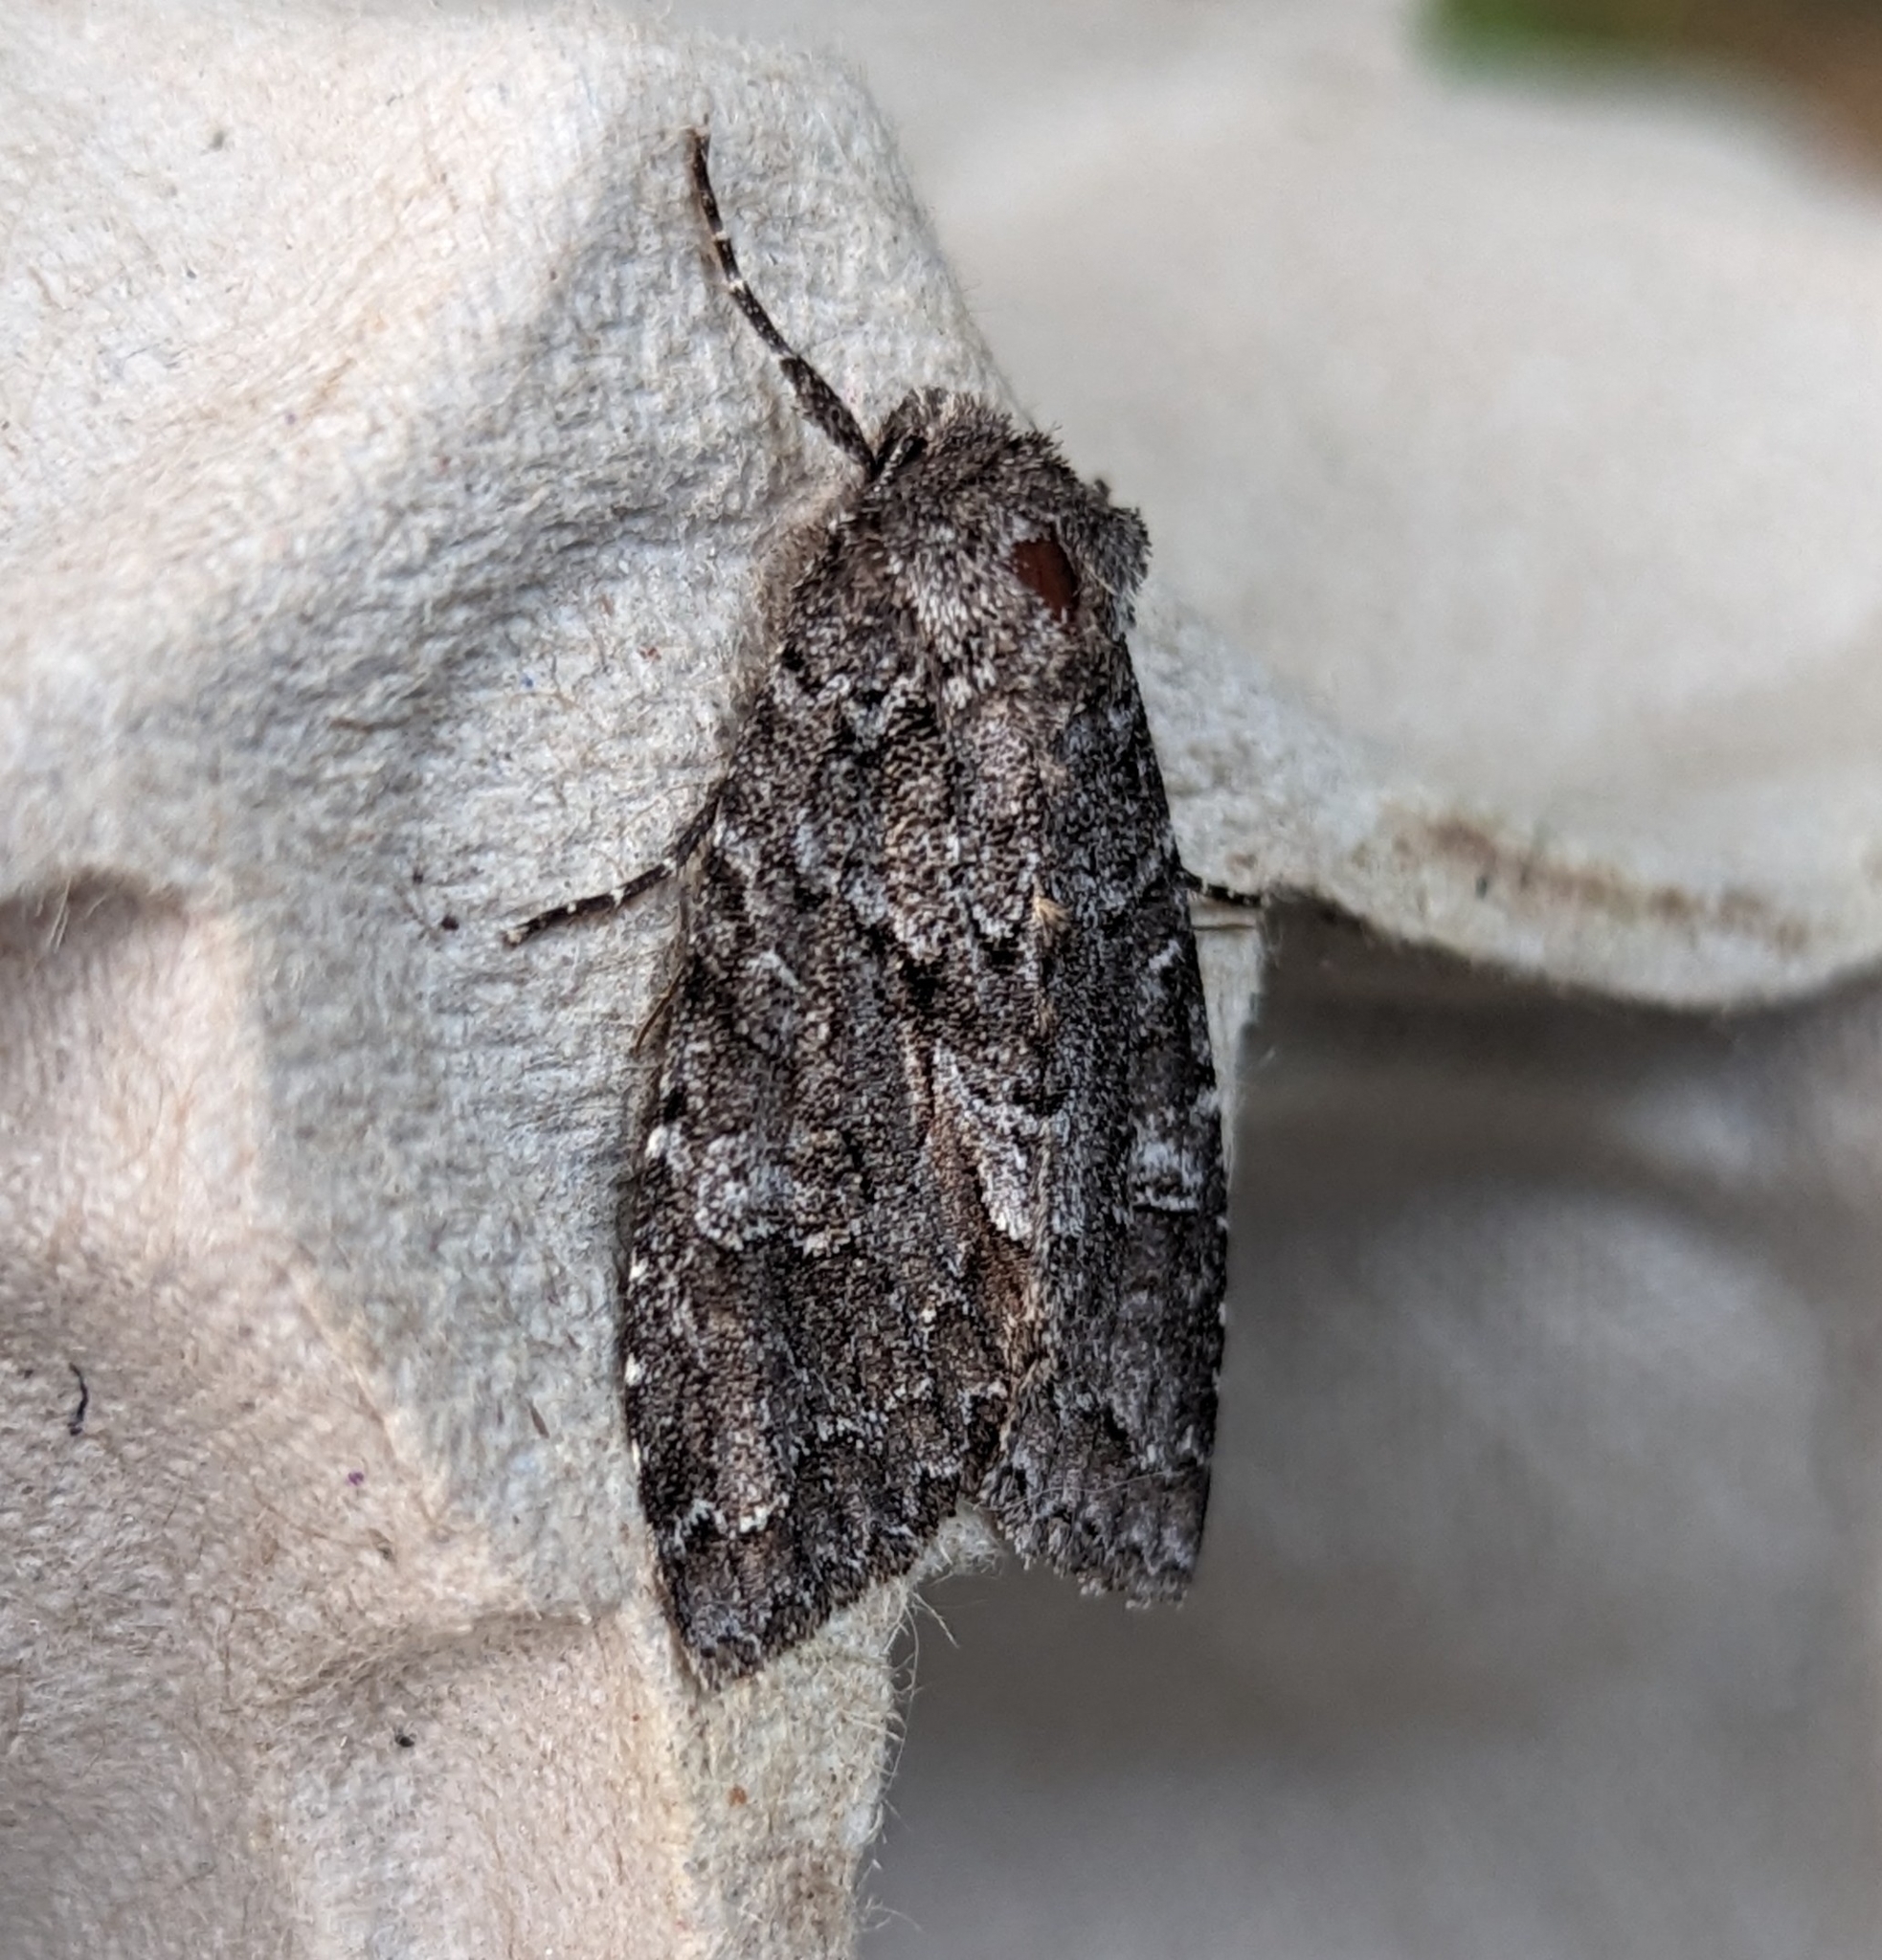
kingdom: Animalia
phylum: Arthropoda
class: Insecta
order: Lepidoptera
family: Noctuidae
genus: Xylotype
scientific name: Xylotype arcadia
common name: Acadian sallow
